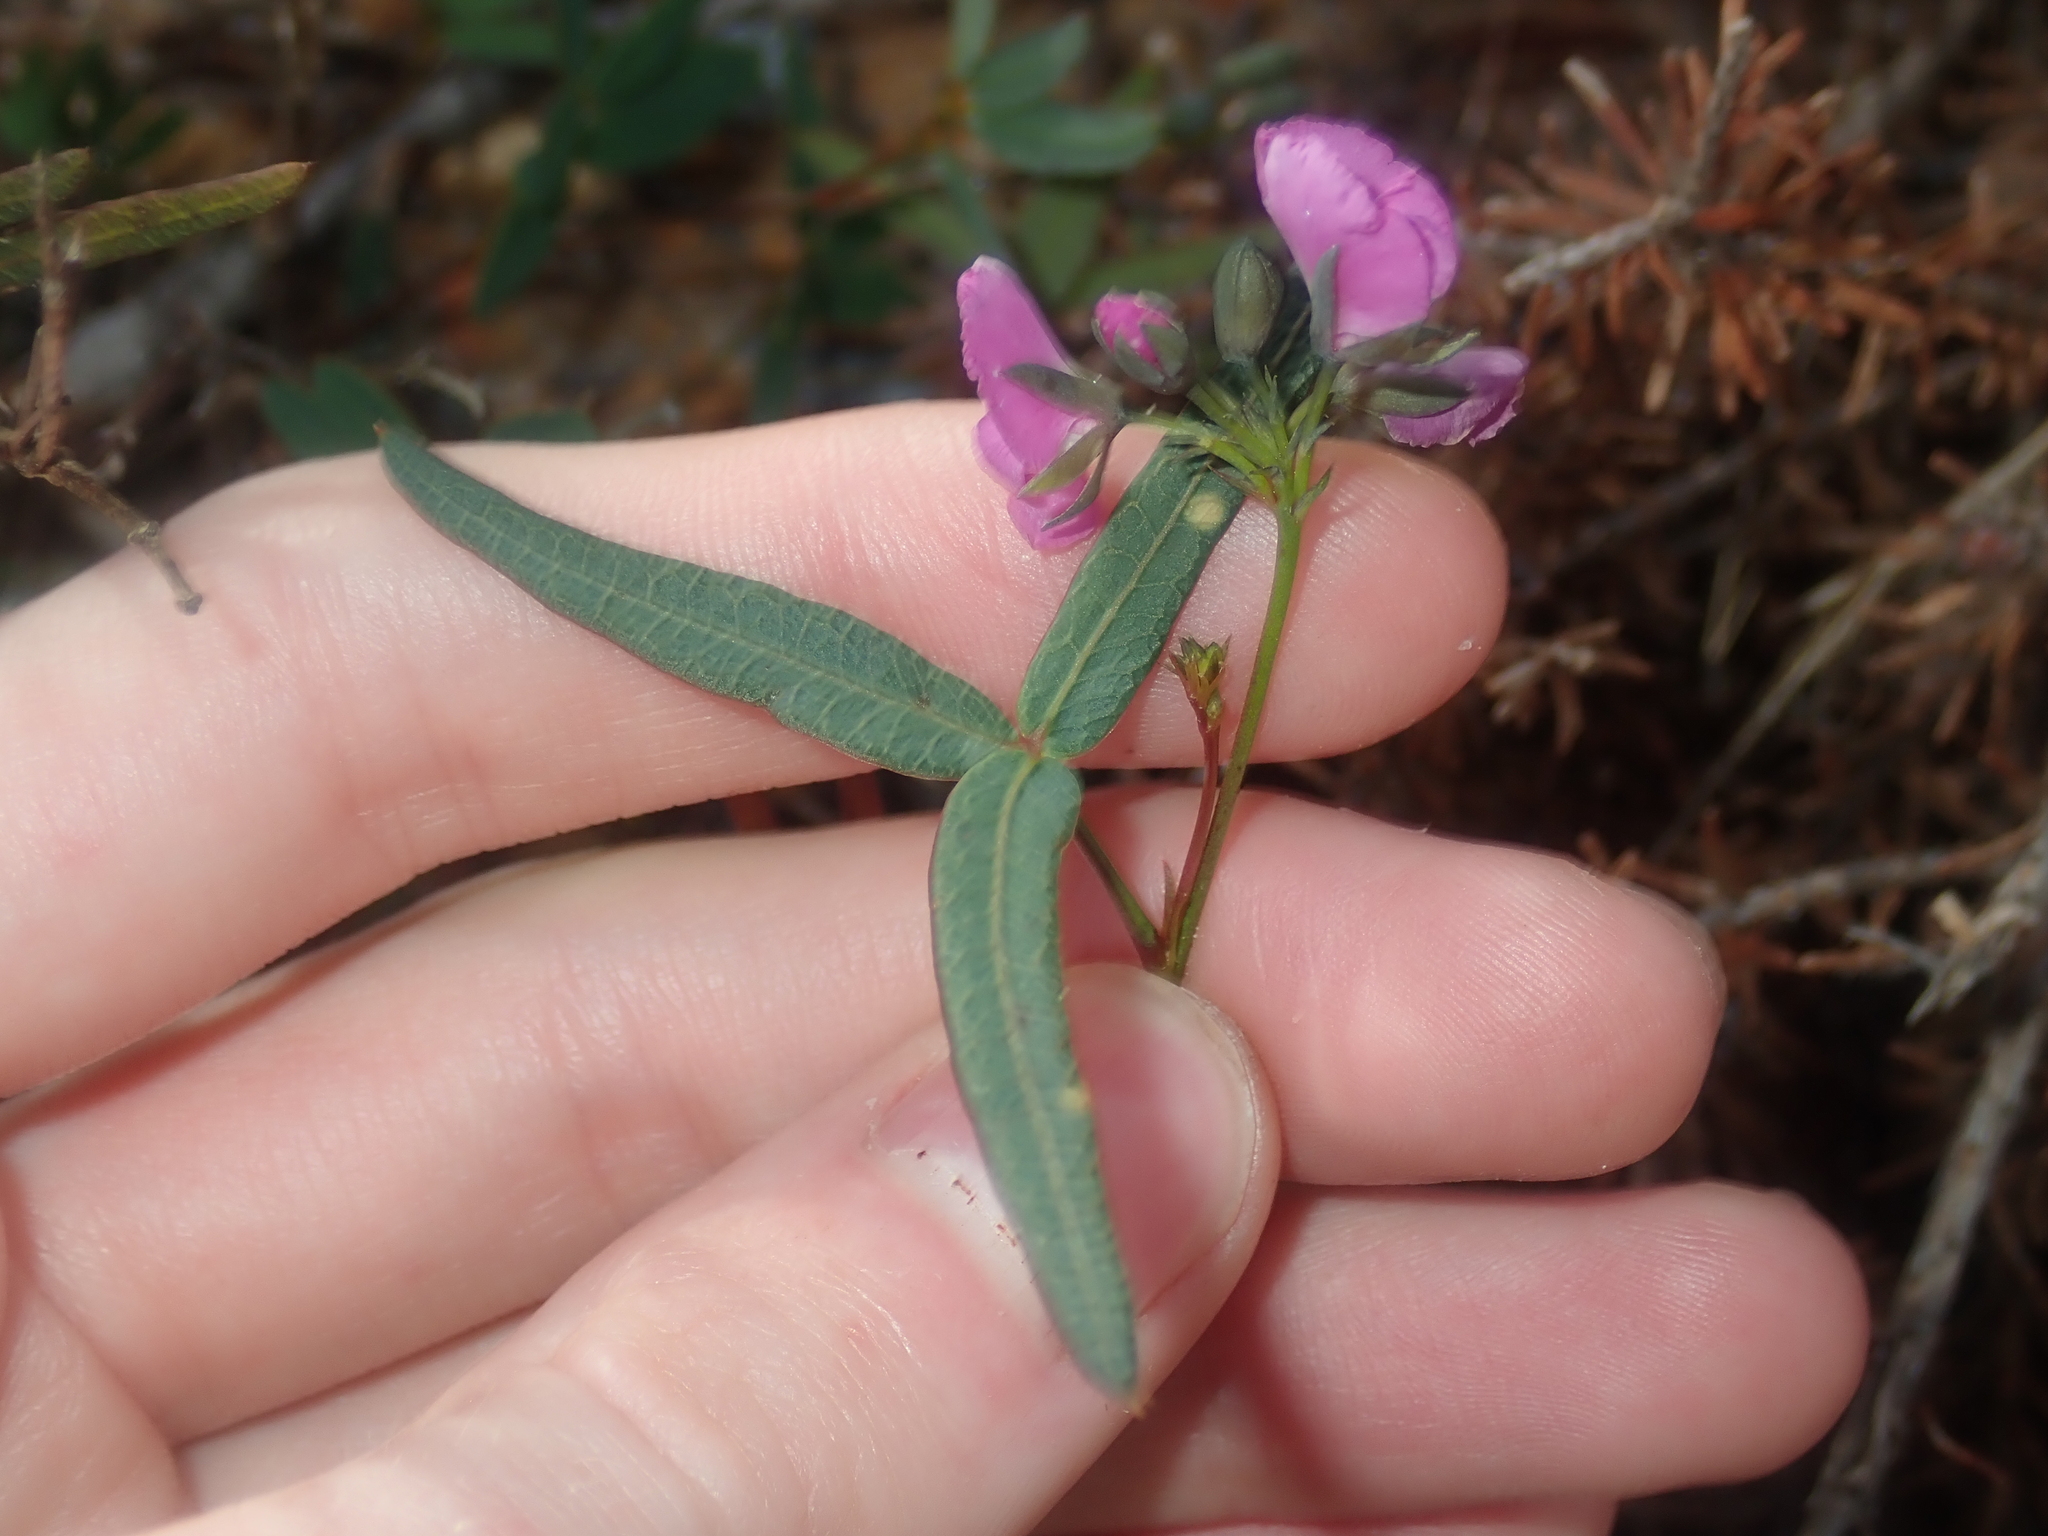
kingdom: Plantae
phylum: Tracheophyta
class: Magnoliopsida
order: Fabales
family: Fabaceae
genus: Gompholobium
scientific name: Gompholobium knightianum
